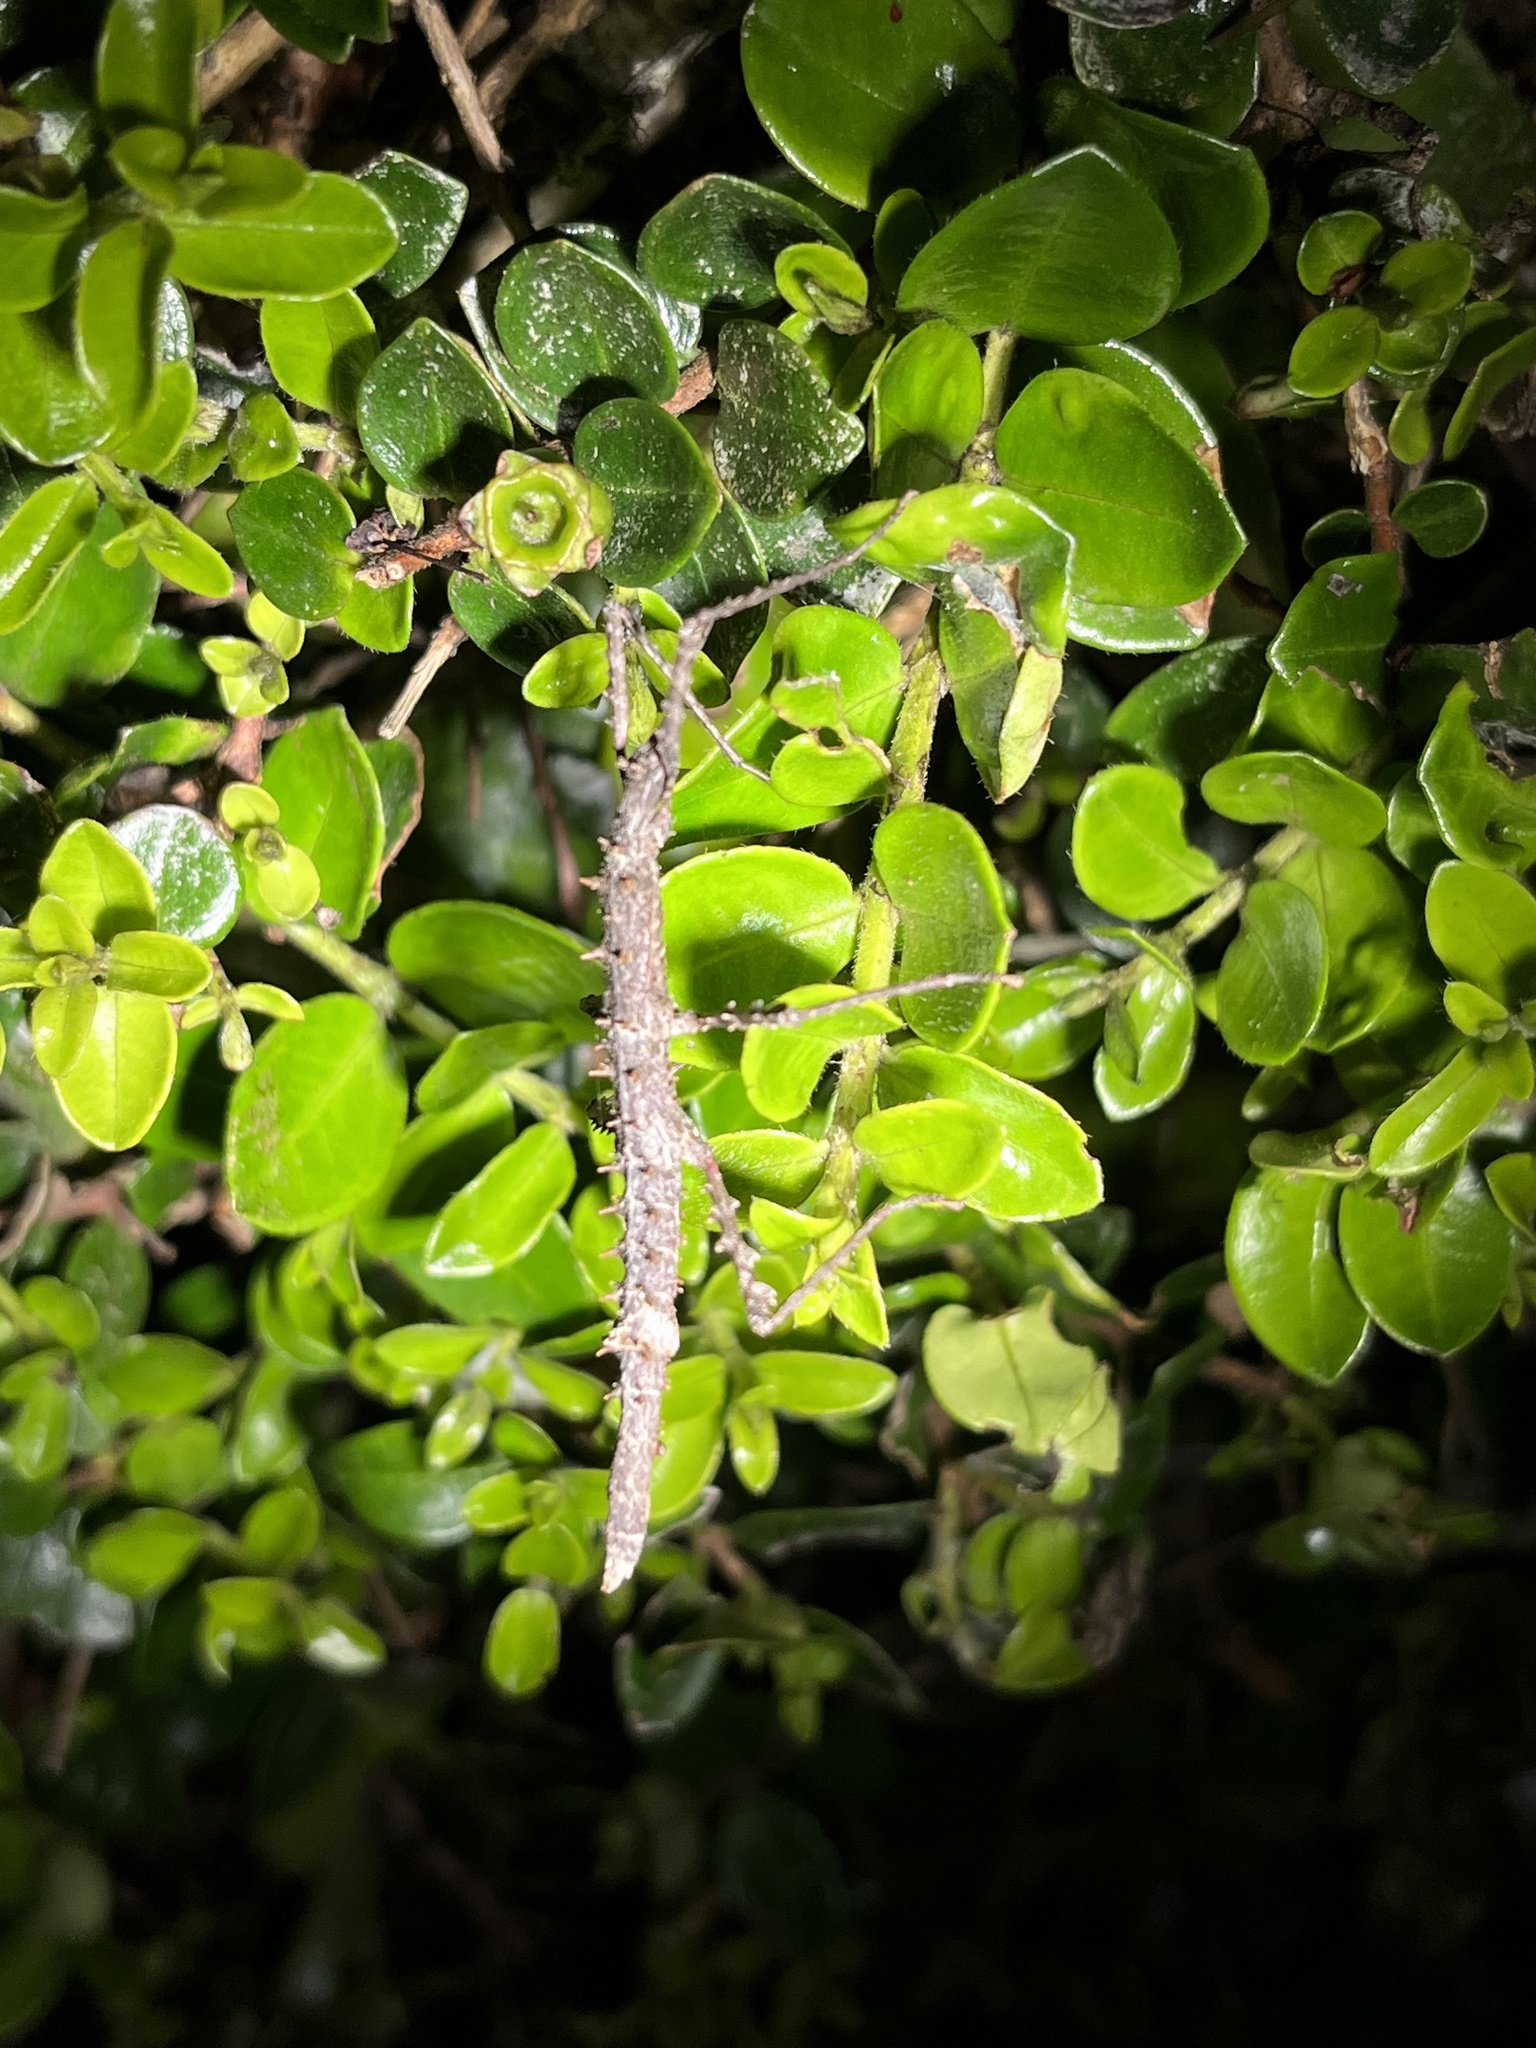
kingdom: Animalia
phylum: Arthropoda
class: Insecta
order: Phasmida
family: Phasmatidae
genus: Acanthoxyla
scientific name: Acanthoxyla prasina
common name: Black-spined stick insect
